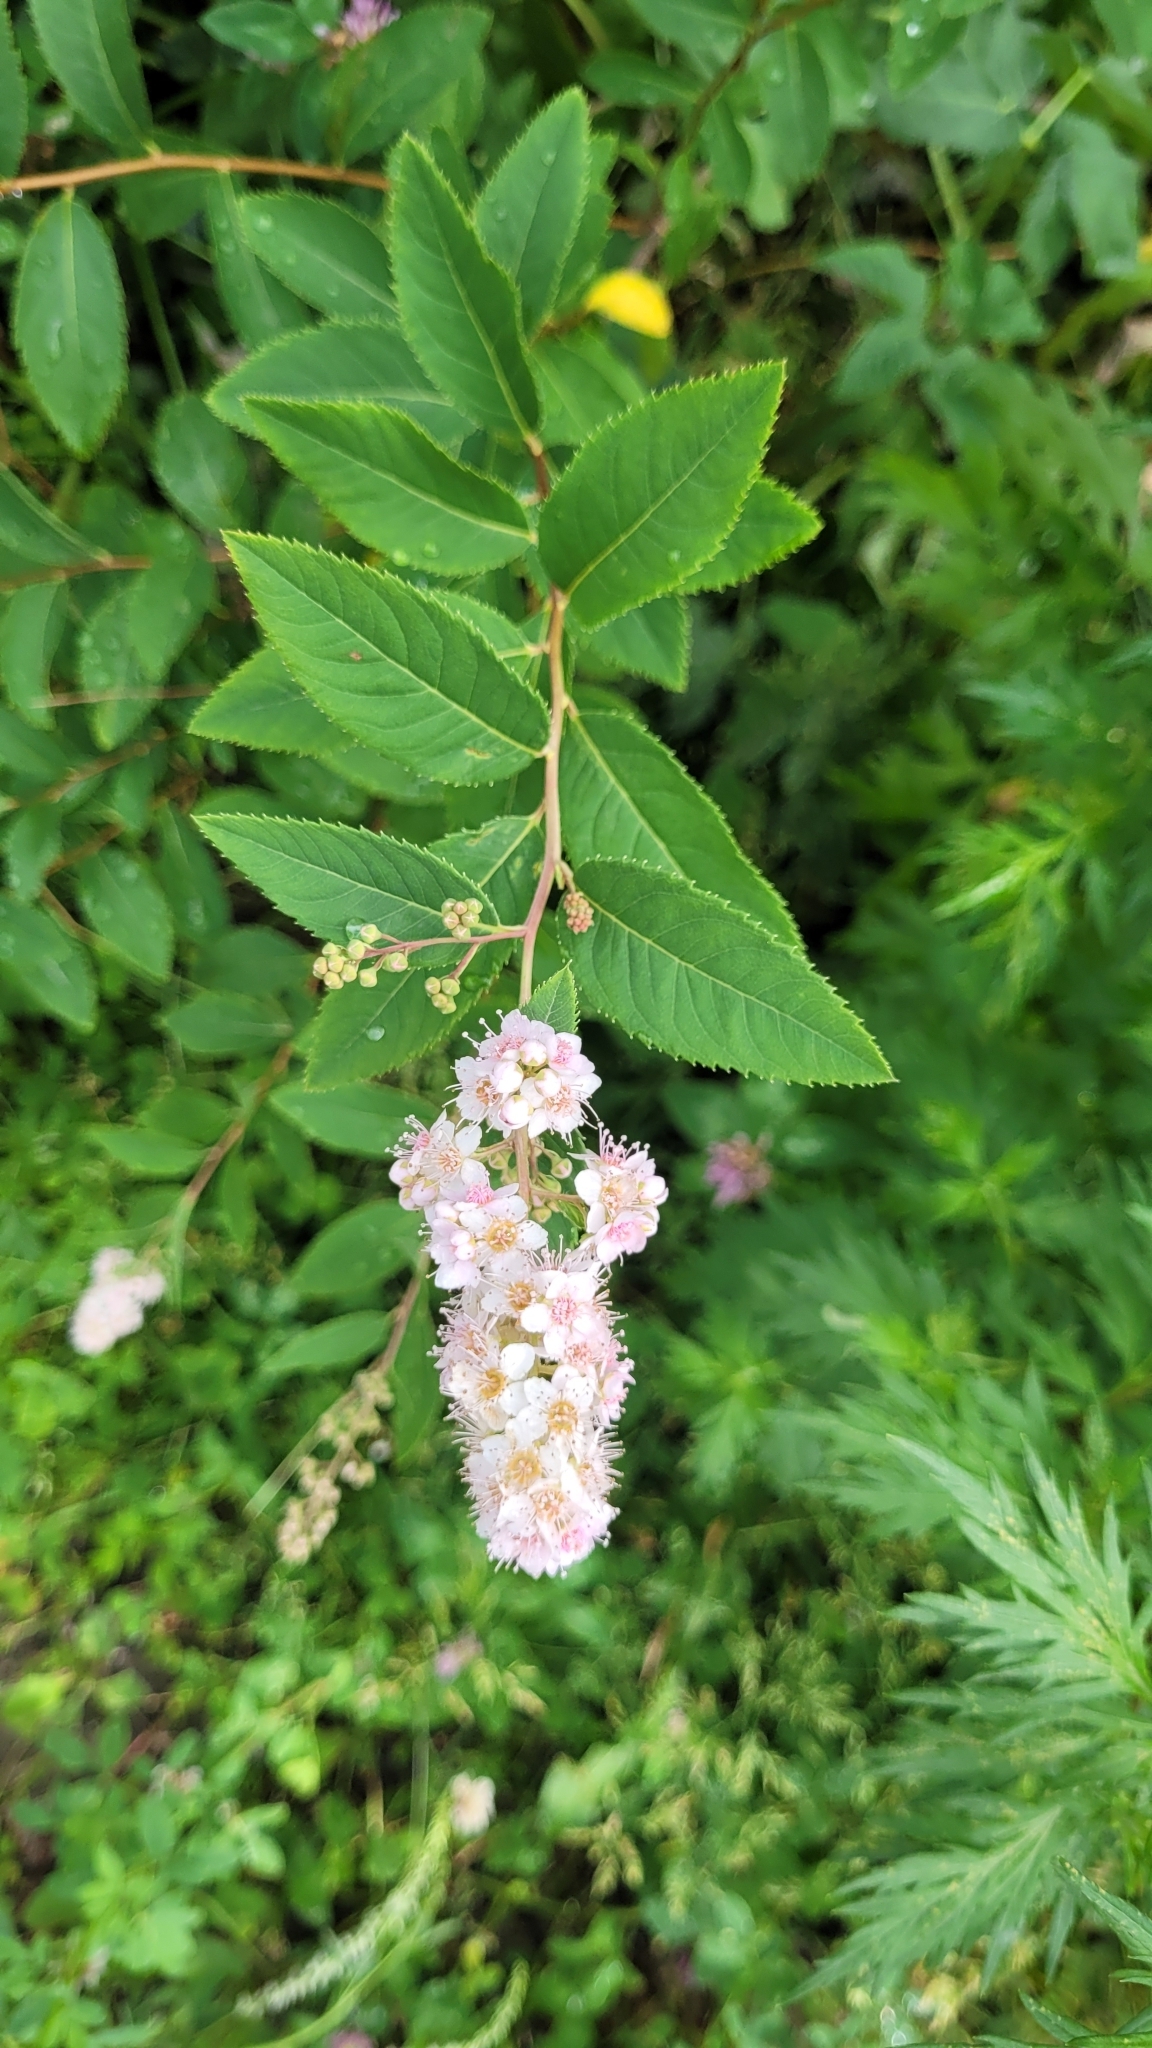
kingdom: Plantae
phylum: Tracheophyta
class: Magnoliopsida
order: Rosales
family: Rosaceae
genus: Spiraea
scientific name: Spiraea salicifolia
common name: Bridewort
